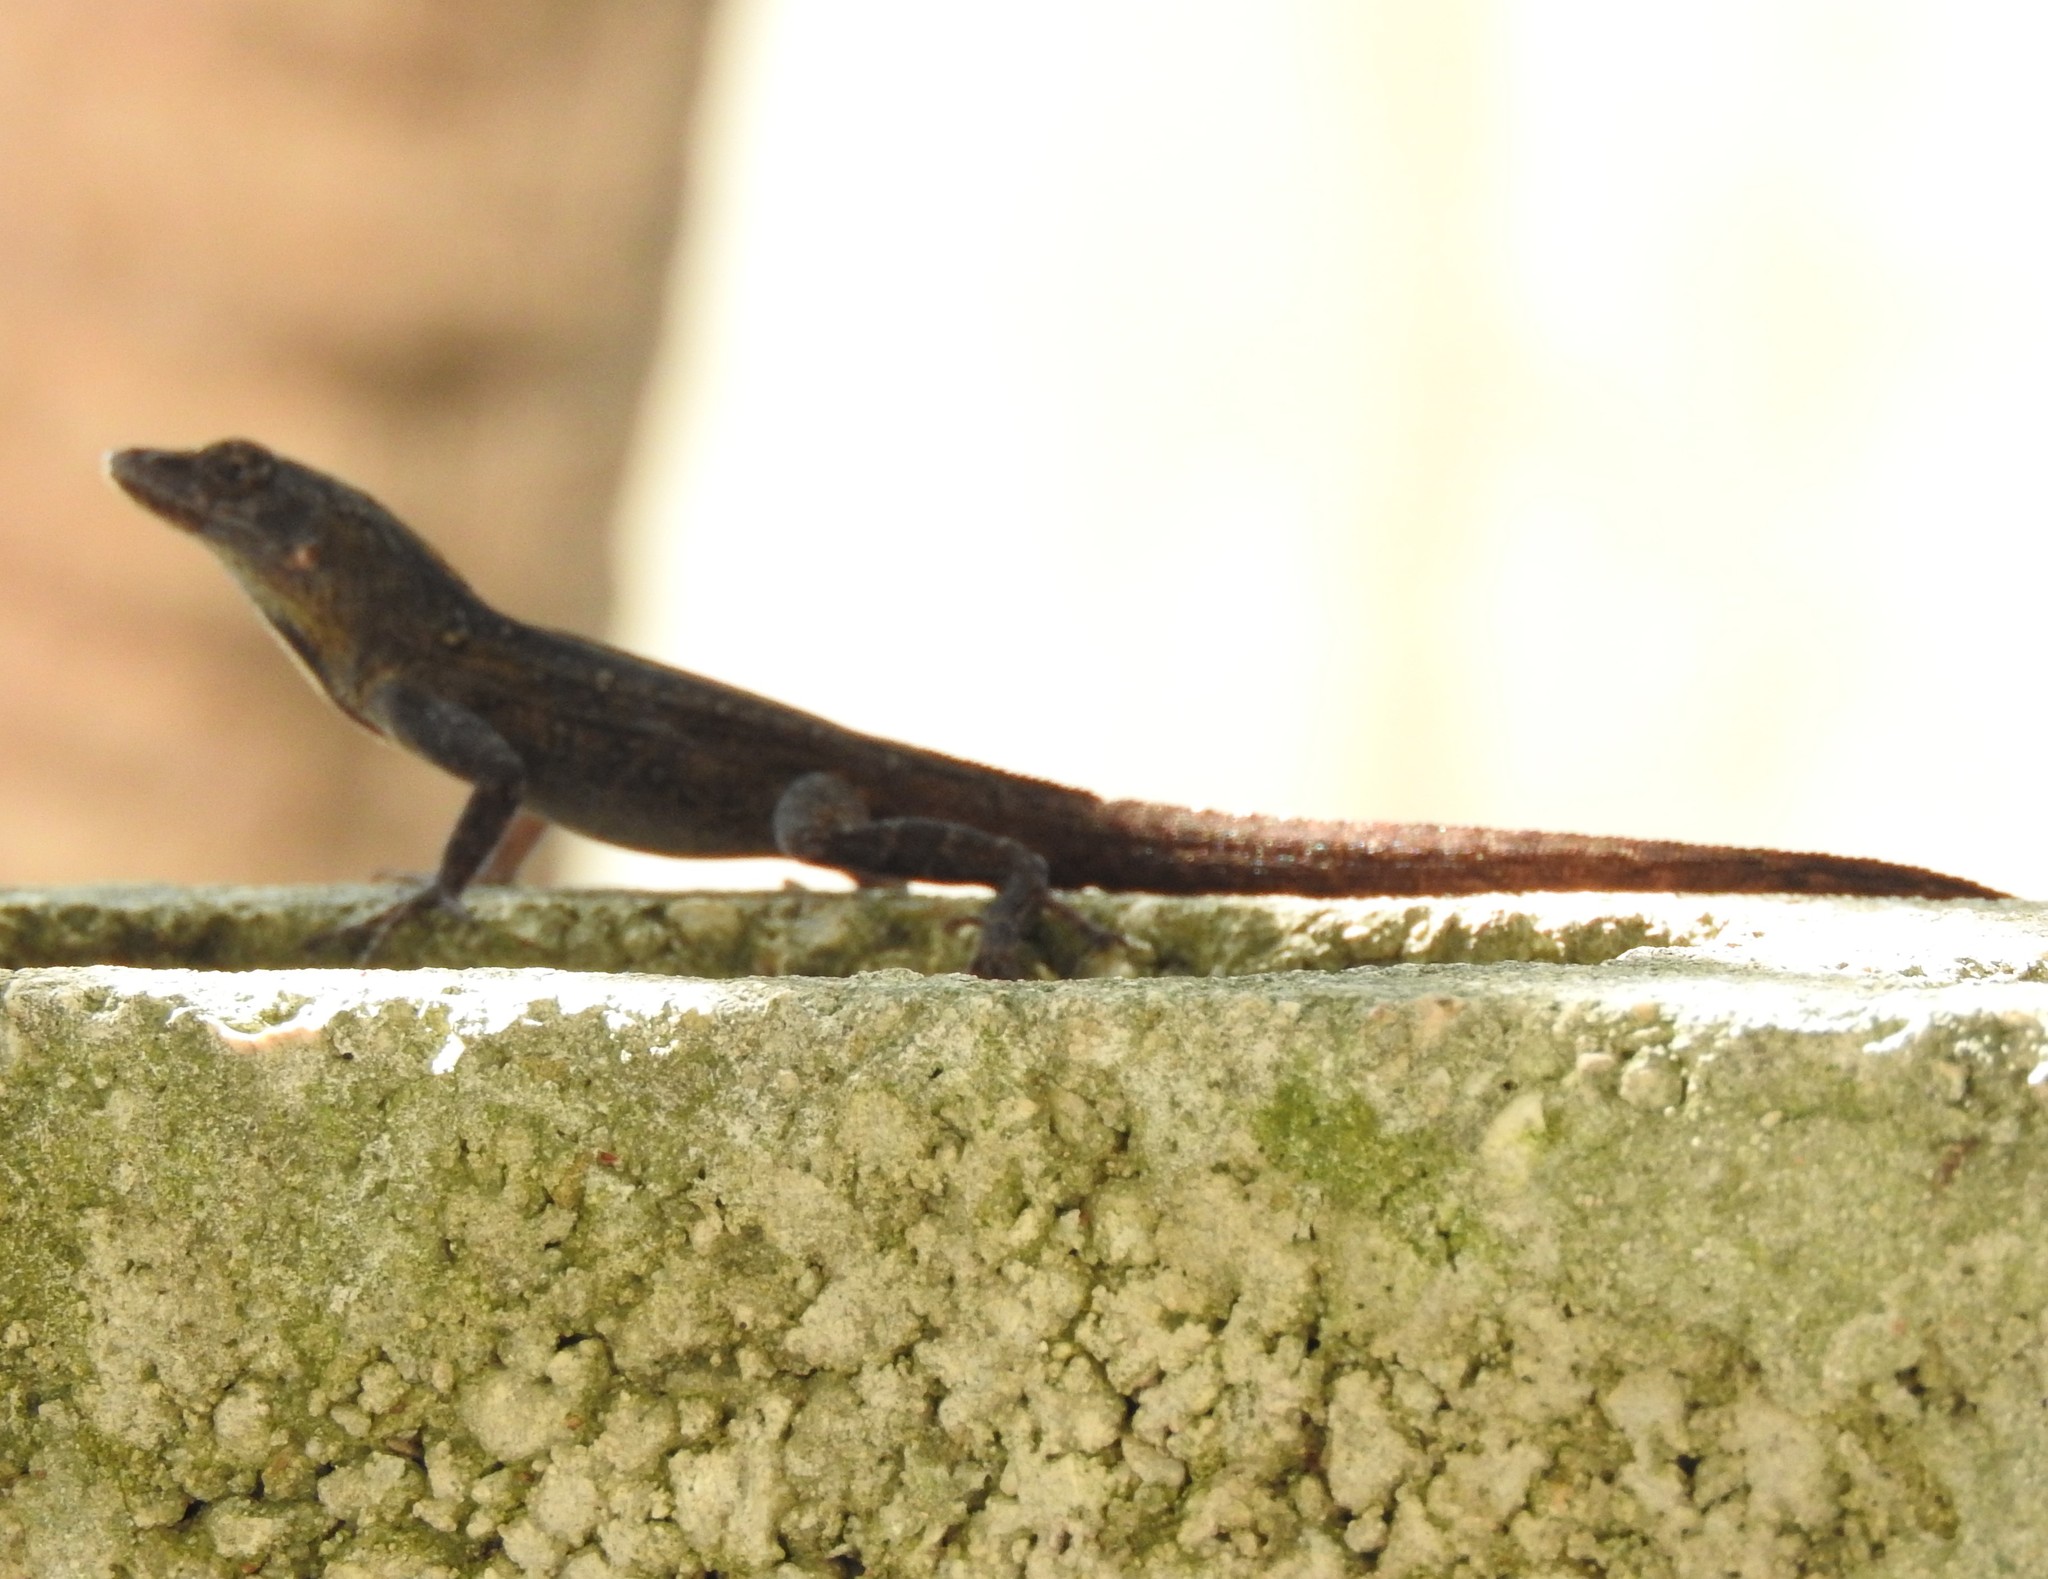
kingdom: Animalia
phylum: Chordata
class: Squamata
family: Dactyloidae
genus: Anolis
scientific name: Anolis sagrei
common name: Brown anole
